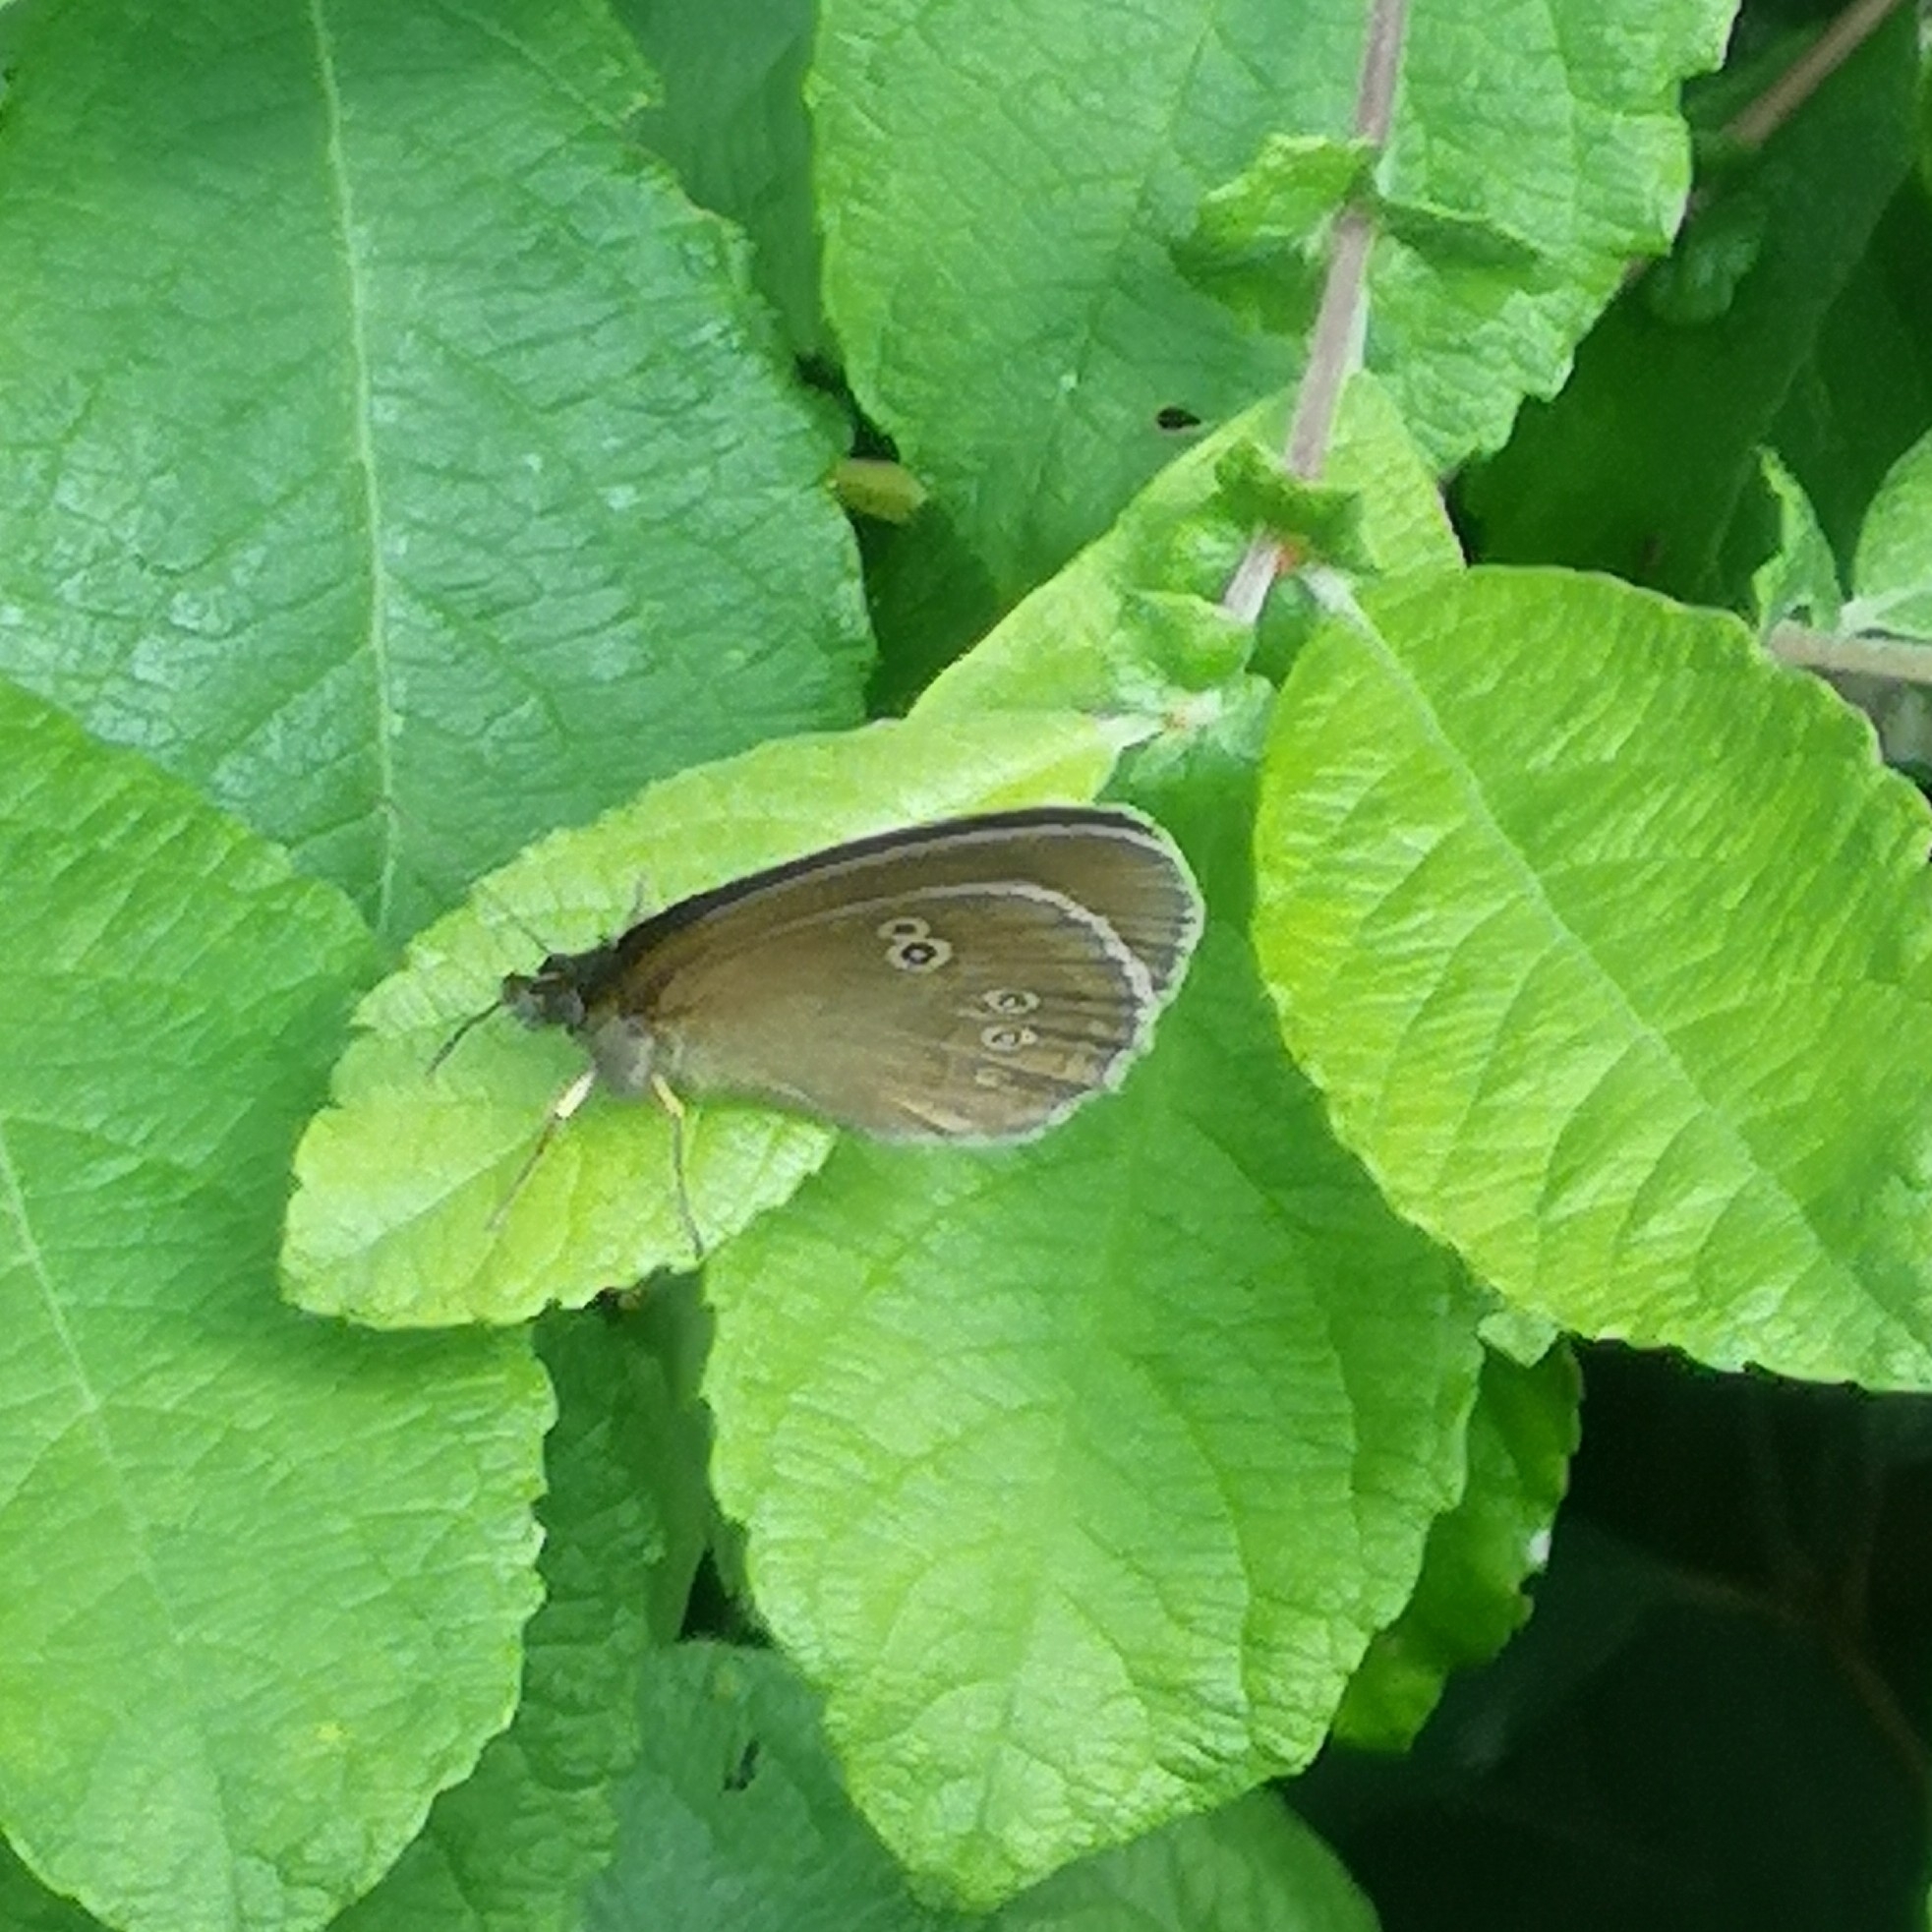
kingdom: Animalia
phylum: Arthropoda
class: Insecta
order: Lepidoptera
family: Nymphalidae
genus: Aphantopus
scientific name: Aphantopus hyperantus
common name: Ringlet
